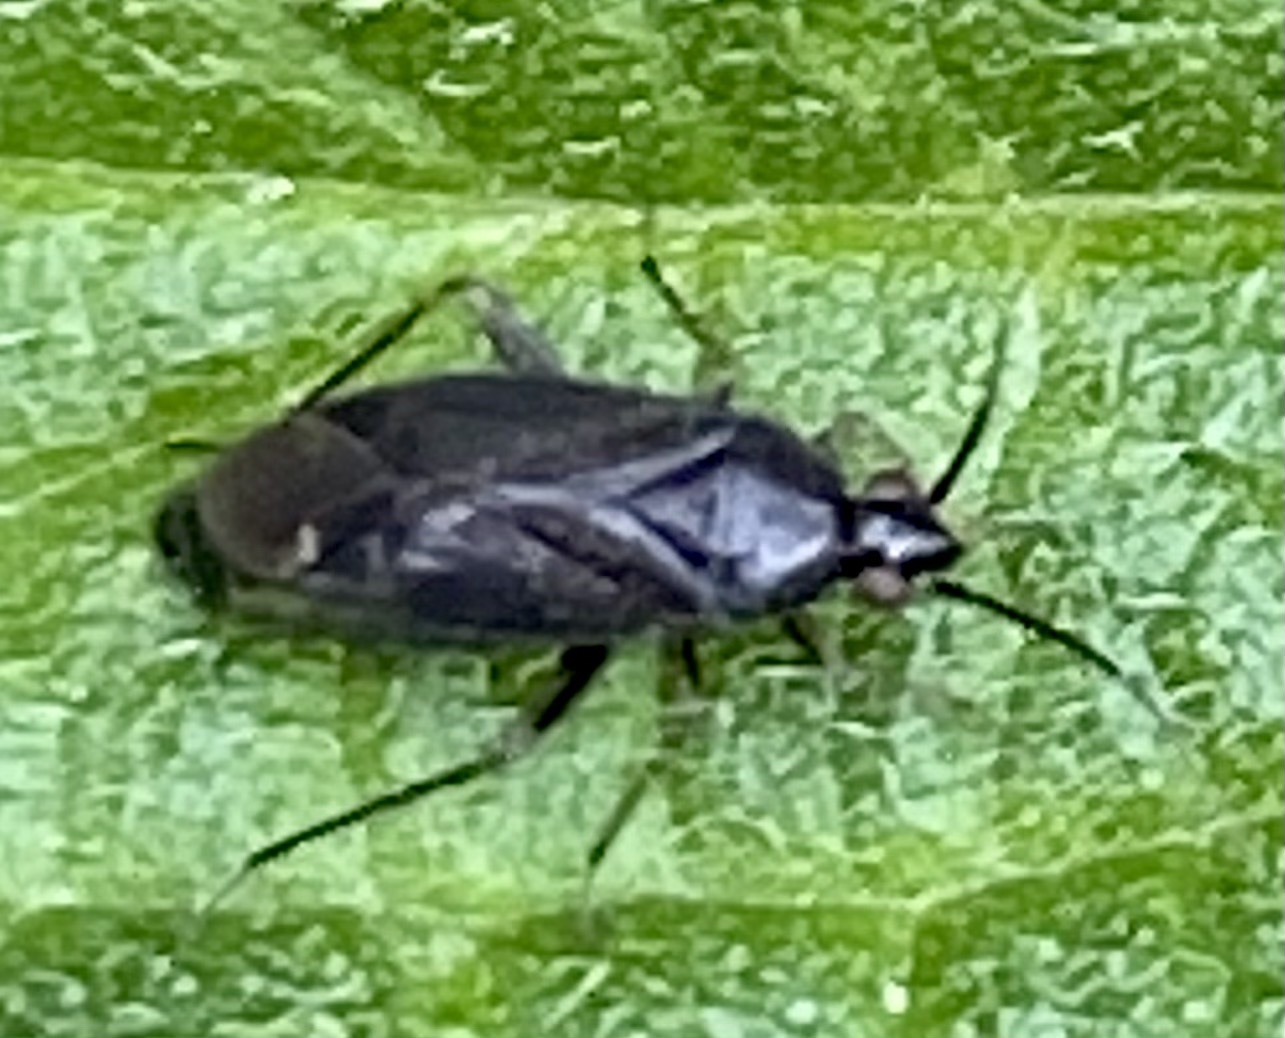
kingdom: Animalia
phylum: Arthropoda
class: Insecta
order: Hemiptera
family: Miridae
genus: Plagiognathus
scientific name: Plagiognathus arbustorum
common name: Plant bug
